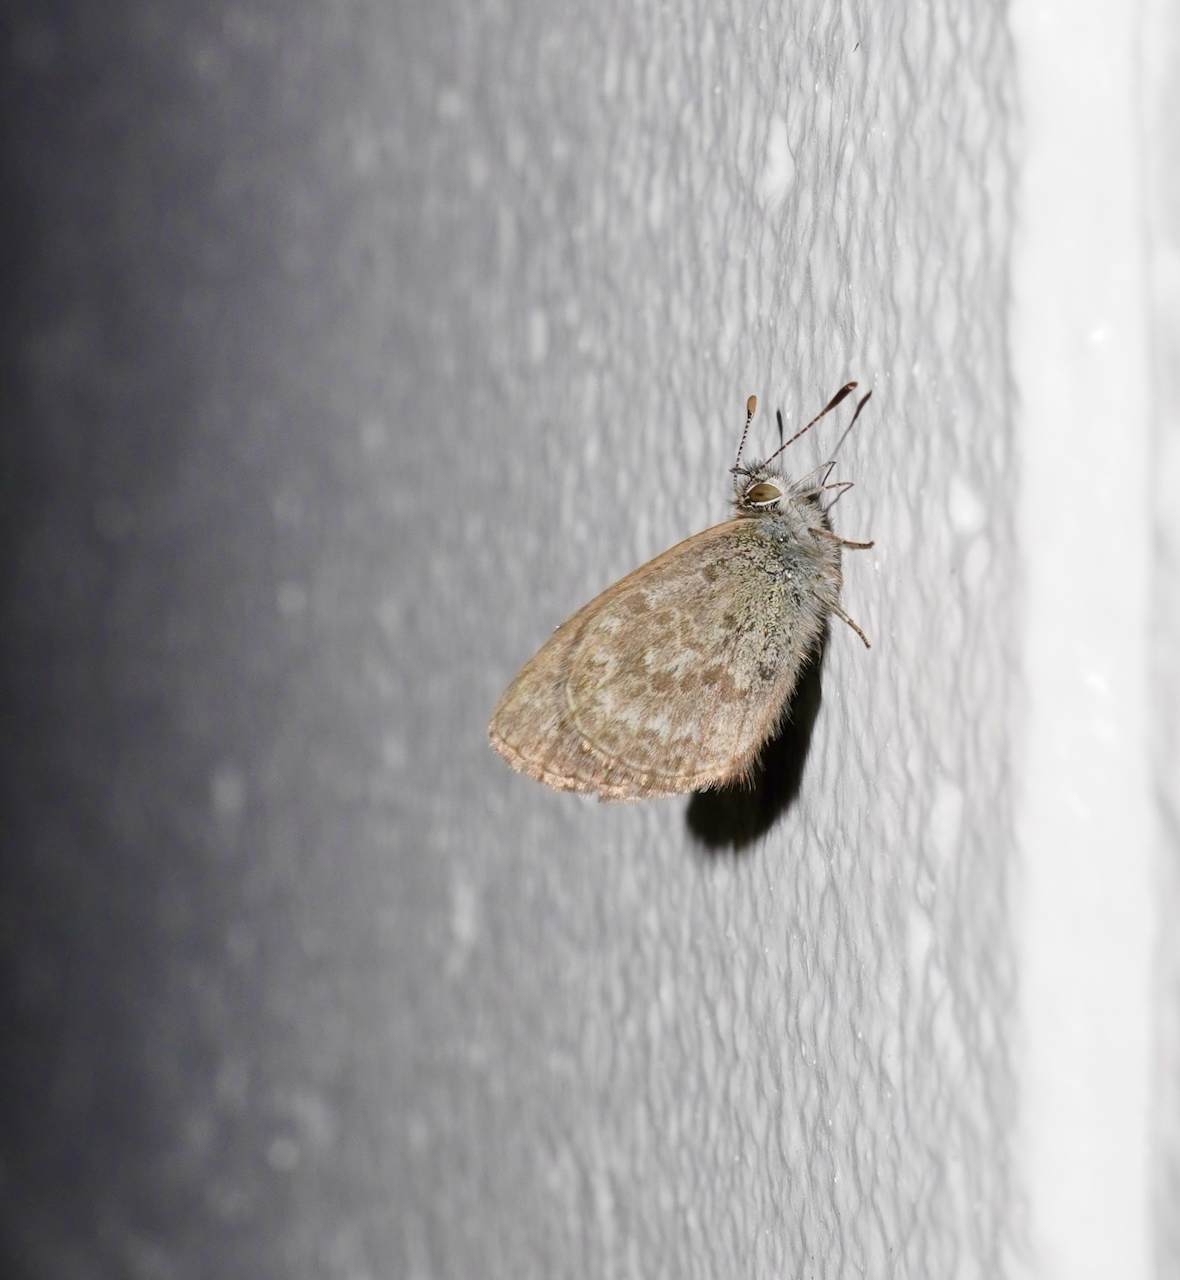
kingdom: Animalia
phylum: Arthropoda
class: Insecta
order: Lepidoptera
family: Lycaenidae
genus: Zizina
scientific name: Zizina otis
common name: Lesser grass blue
